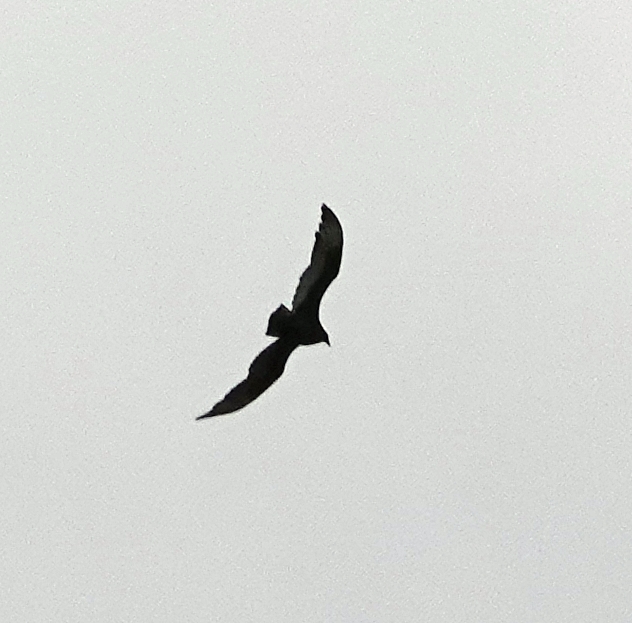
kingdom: Animalia
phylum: Chordata
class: Aves
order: Accipitriformes
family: Cathartidae
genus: Cathartes
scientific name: Cathartes aura
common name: Turkey vulture
